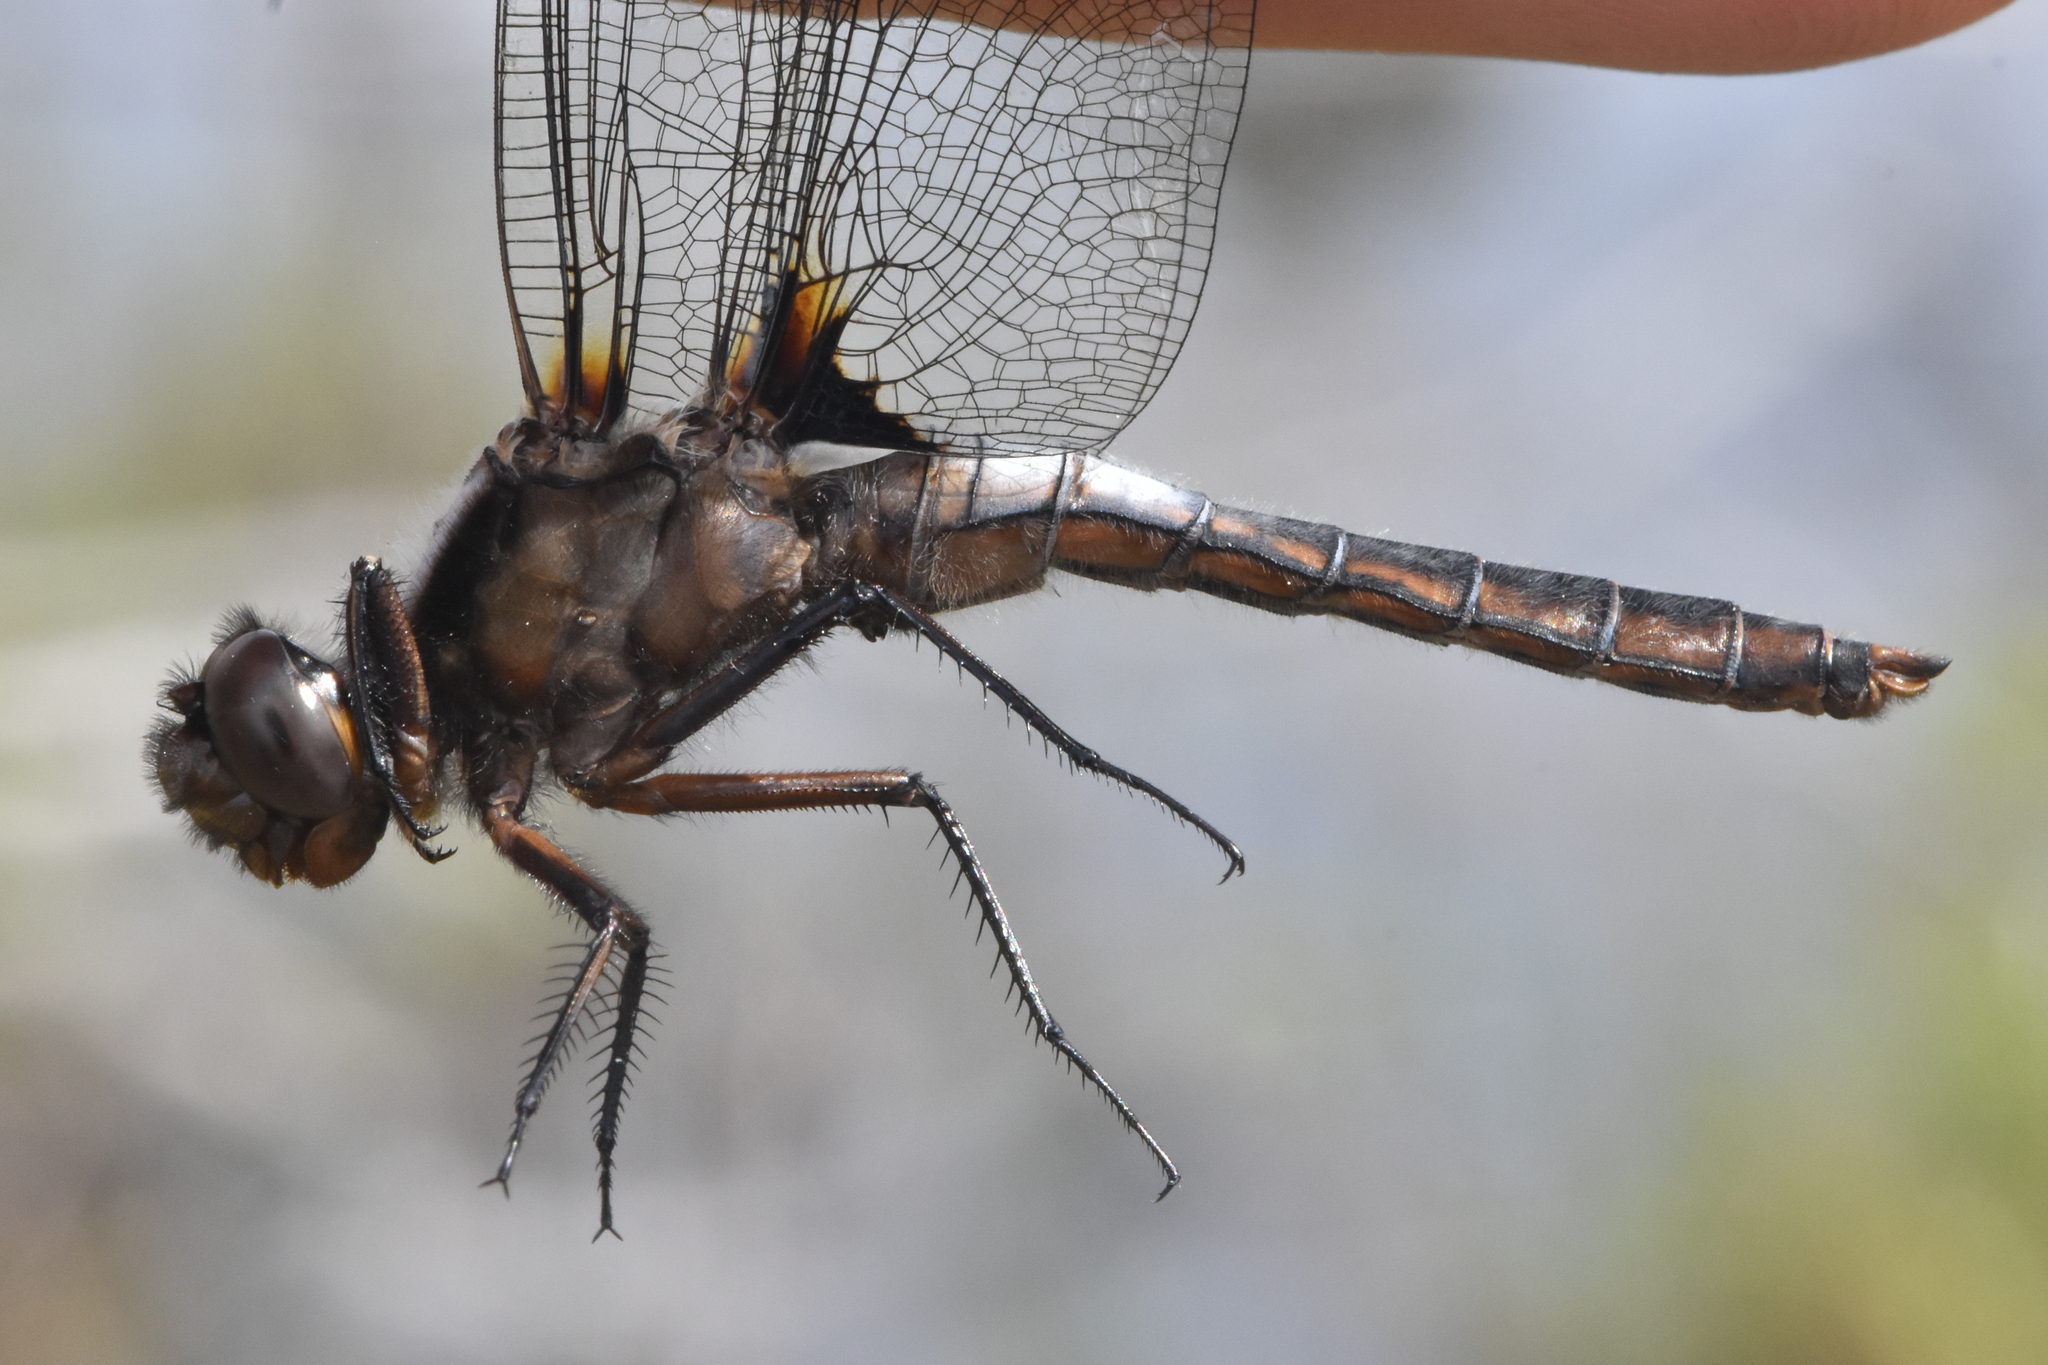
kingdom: Animalia
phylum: Arthropoda
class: Insecta
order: Odonata
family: Libellulidae
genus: Ladona
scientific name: Ladona julia
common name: Chalk-fronted corporal
